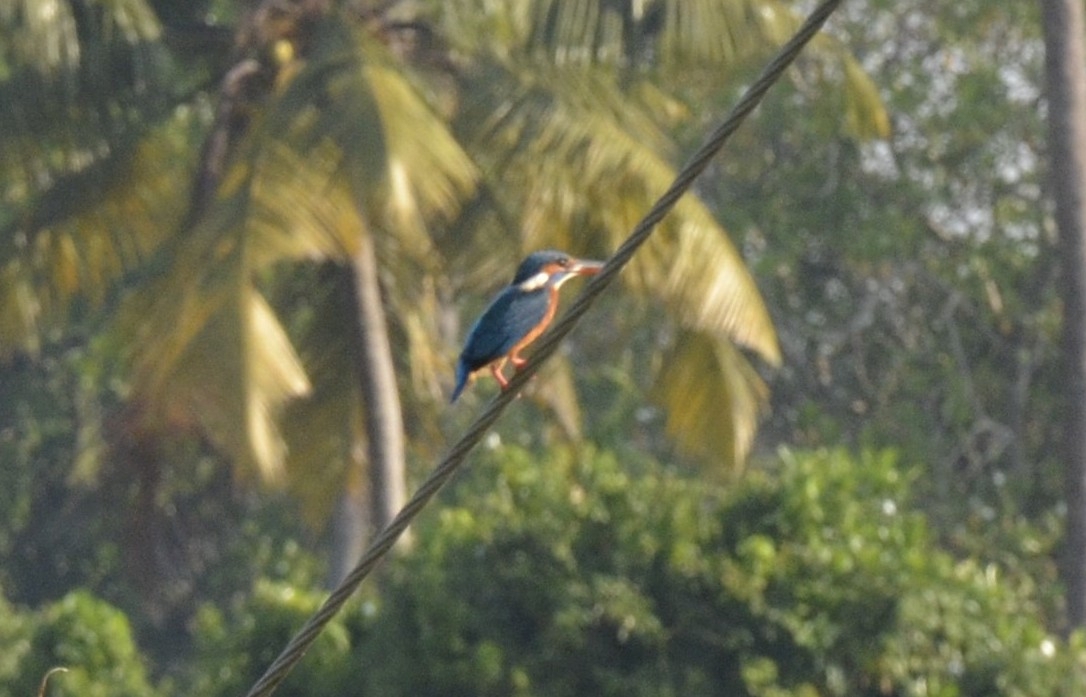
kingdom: Animalia
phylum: Chordata
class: Aves
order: Coraciiformes
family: Alcedinidae
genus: Alcedo
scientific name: Alcedo atthis
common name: Common kingfisher
